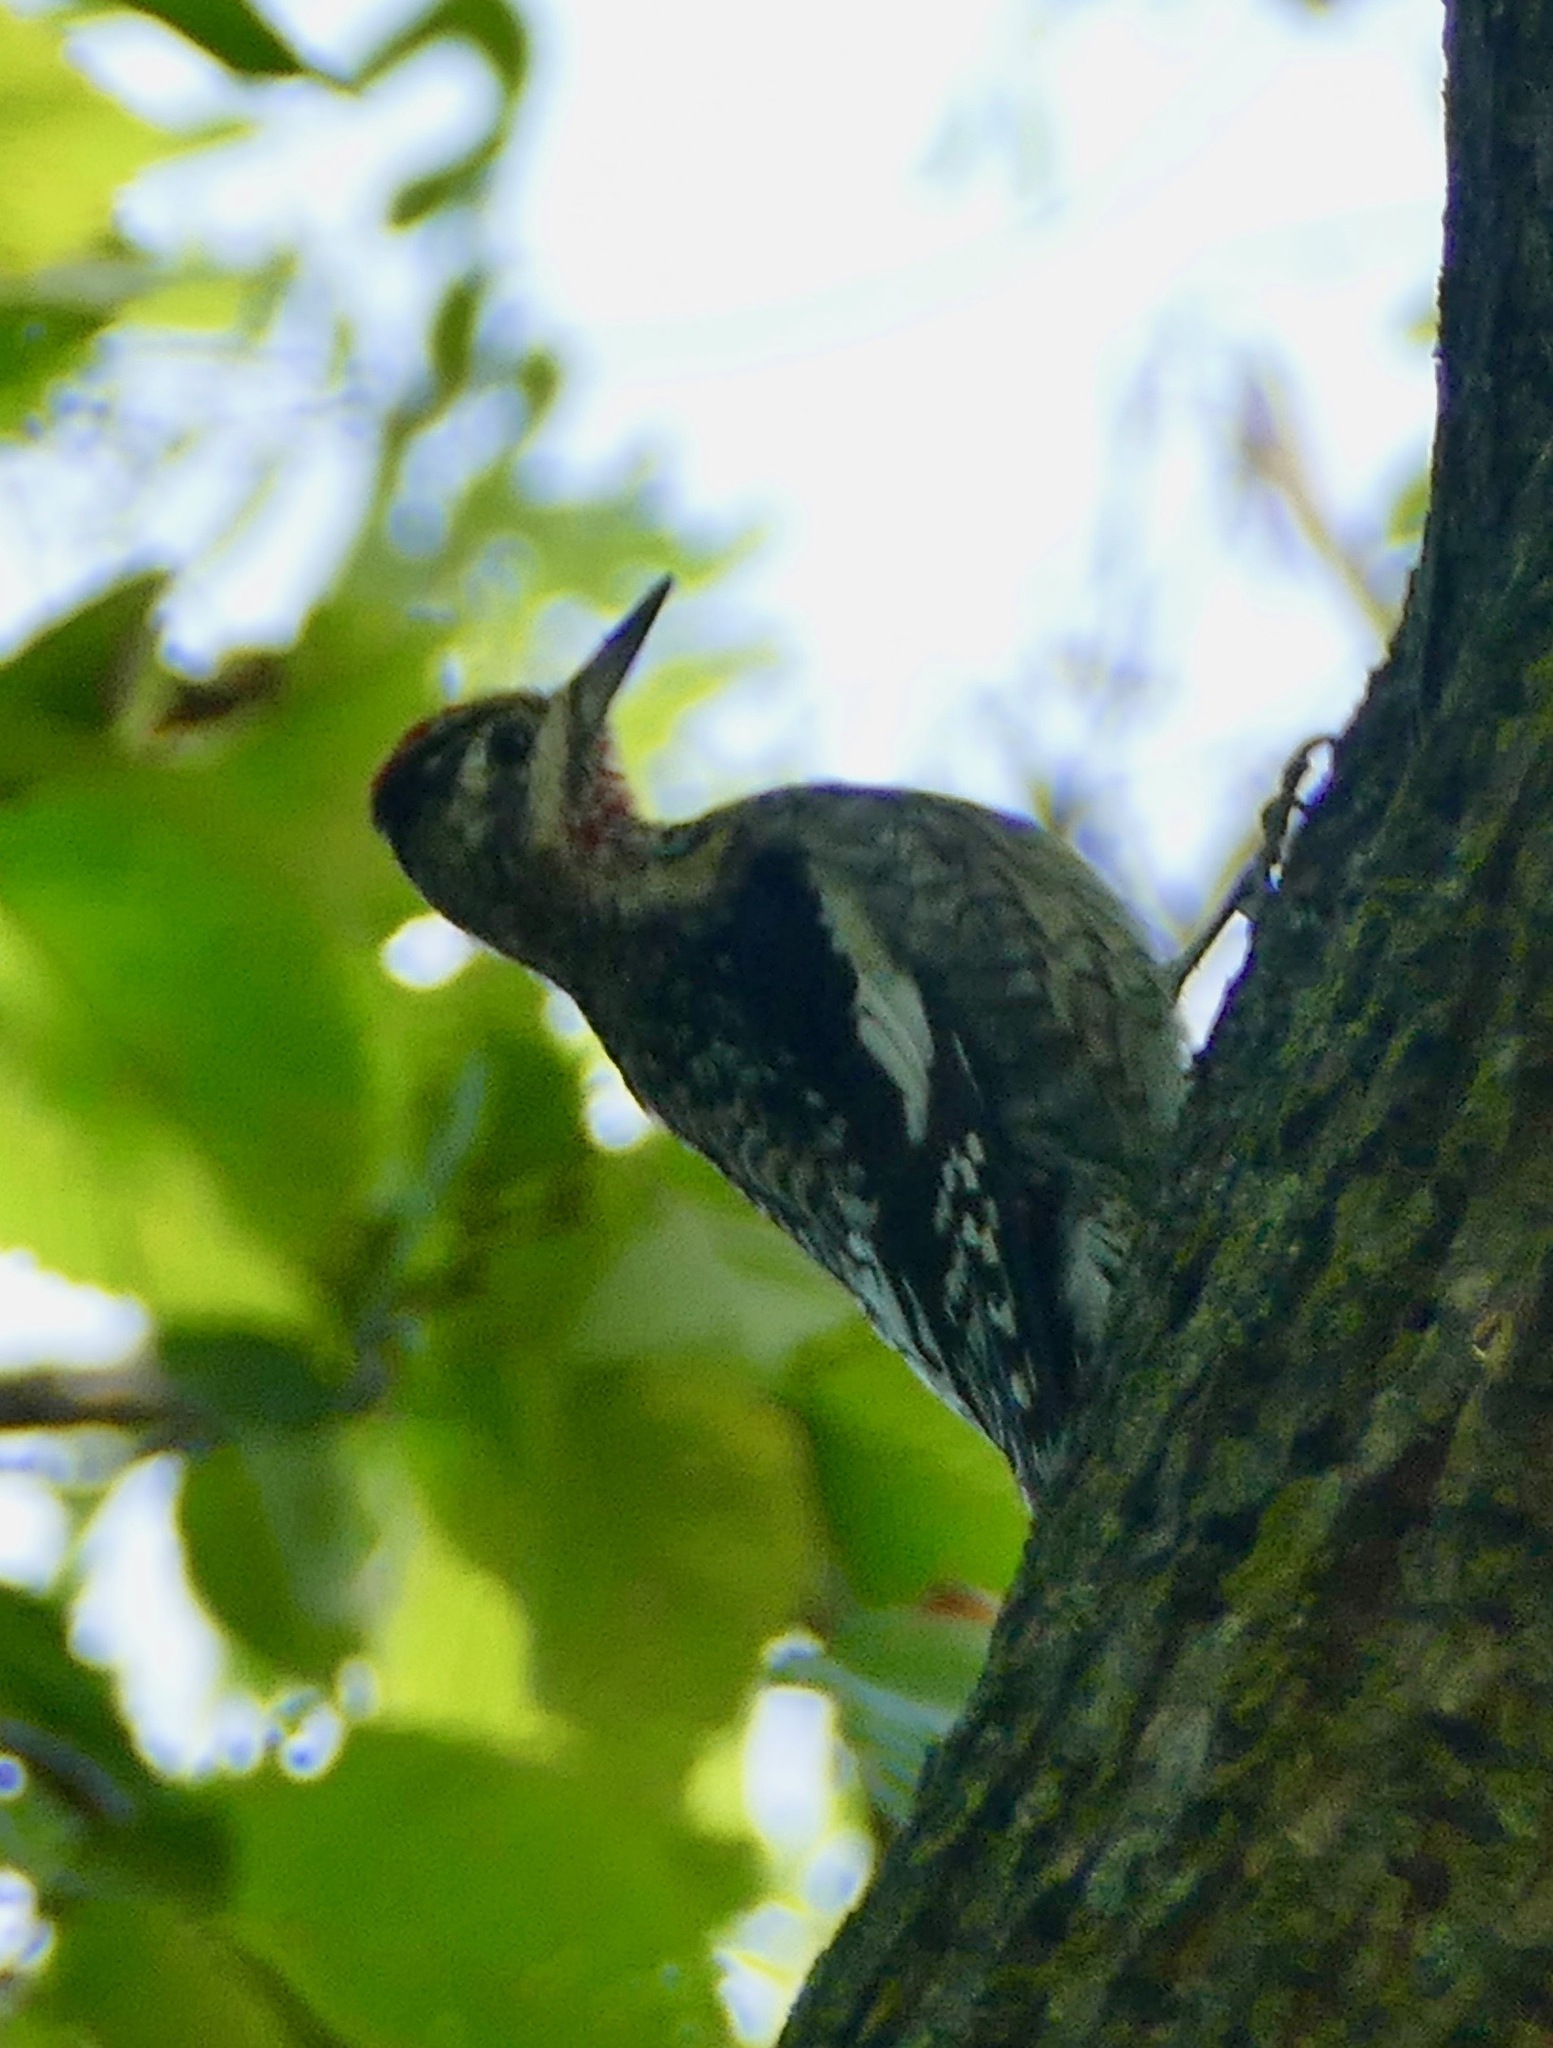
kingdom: Animalia
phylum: Chordata
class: Aves
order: Piciformes
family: Picidae
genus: Sphyrapicus
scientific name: Sphyrapicus varius
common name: Yellow-bellied sapsucker
